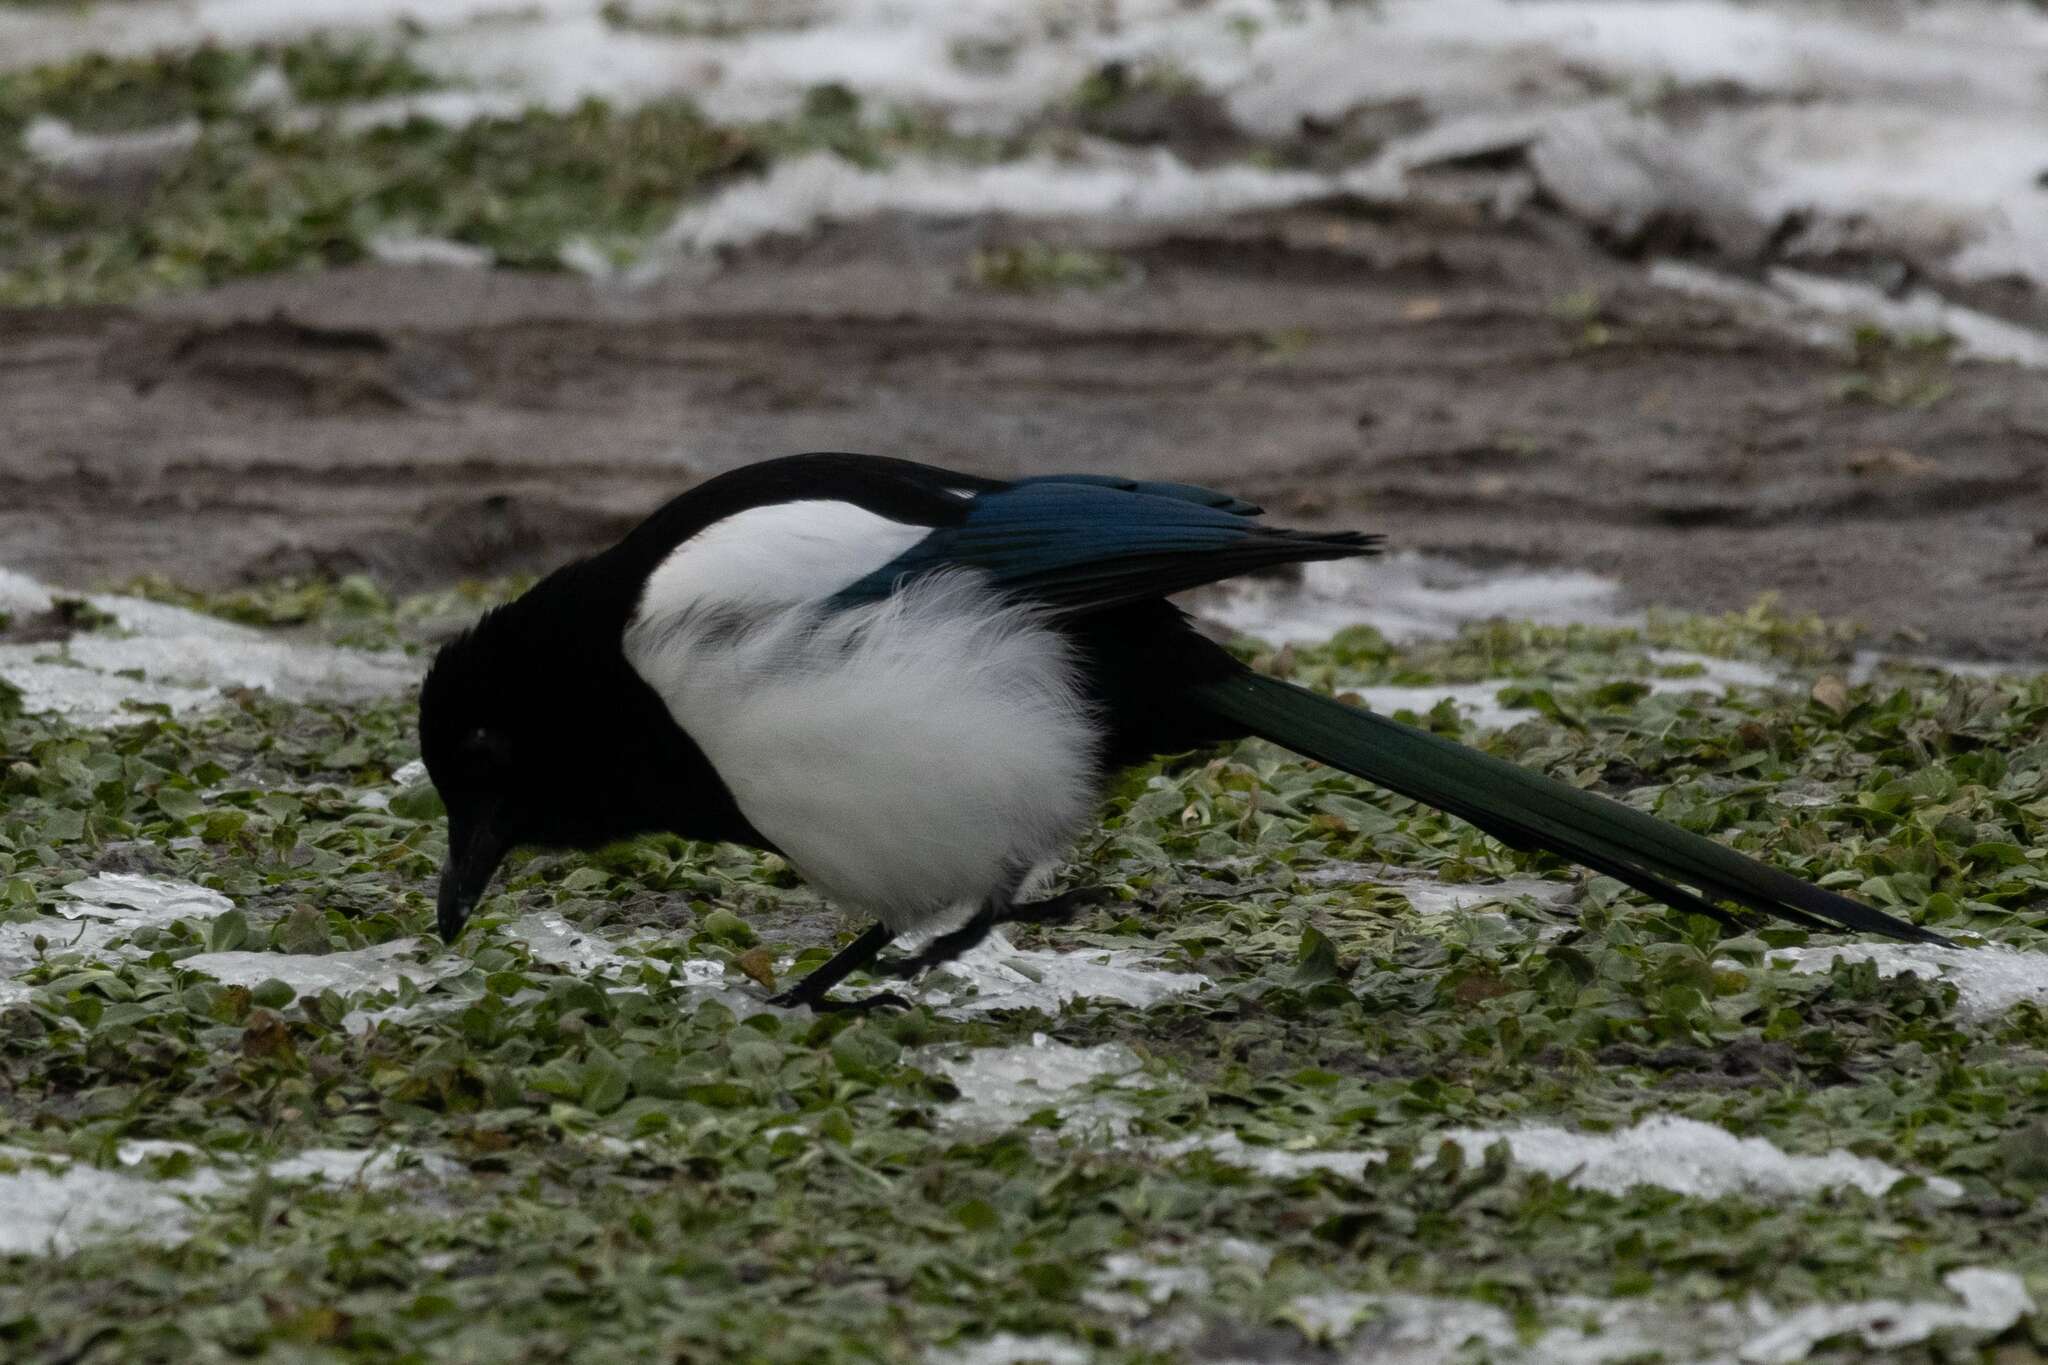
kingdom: Animalia
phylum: Chordata
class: Aves
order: Passeriformes
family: Corvidae
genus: Pica
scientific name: Pica pica
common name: Eurasian magpie
